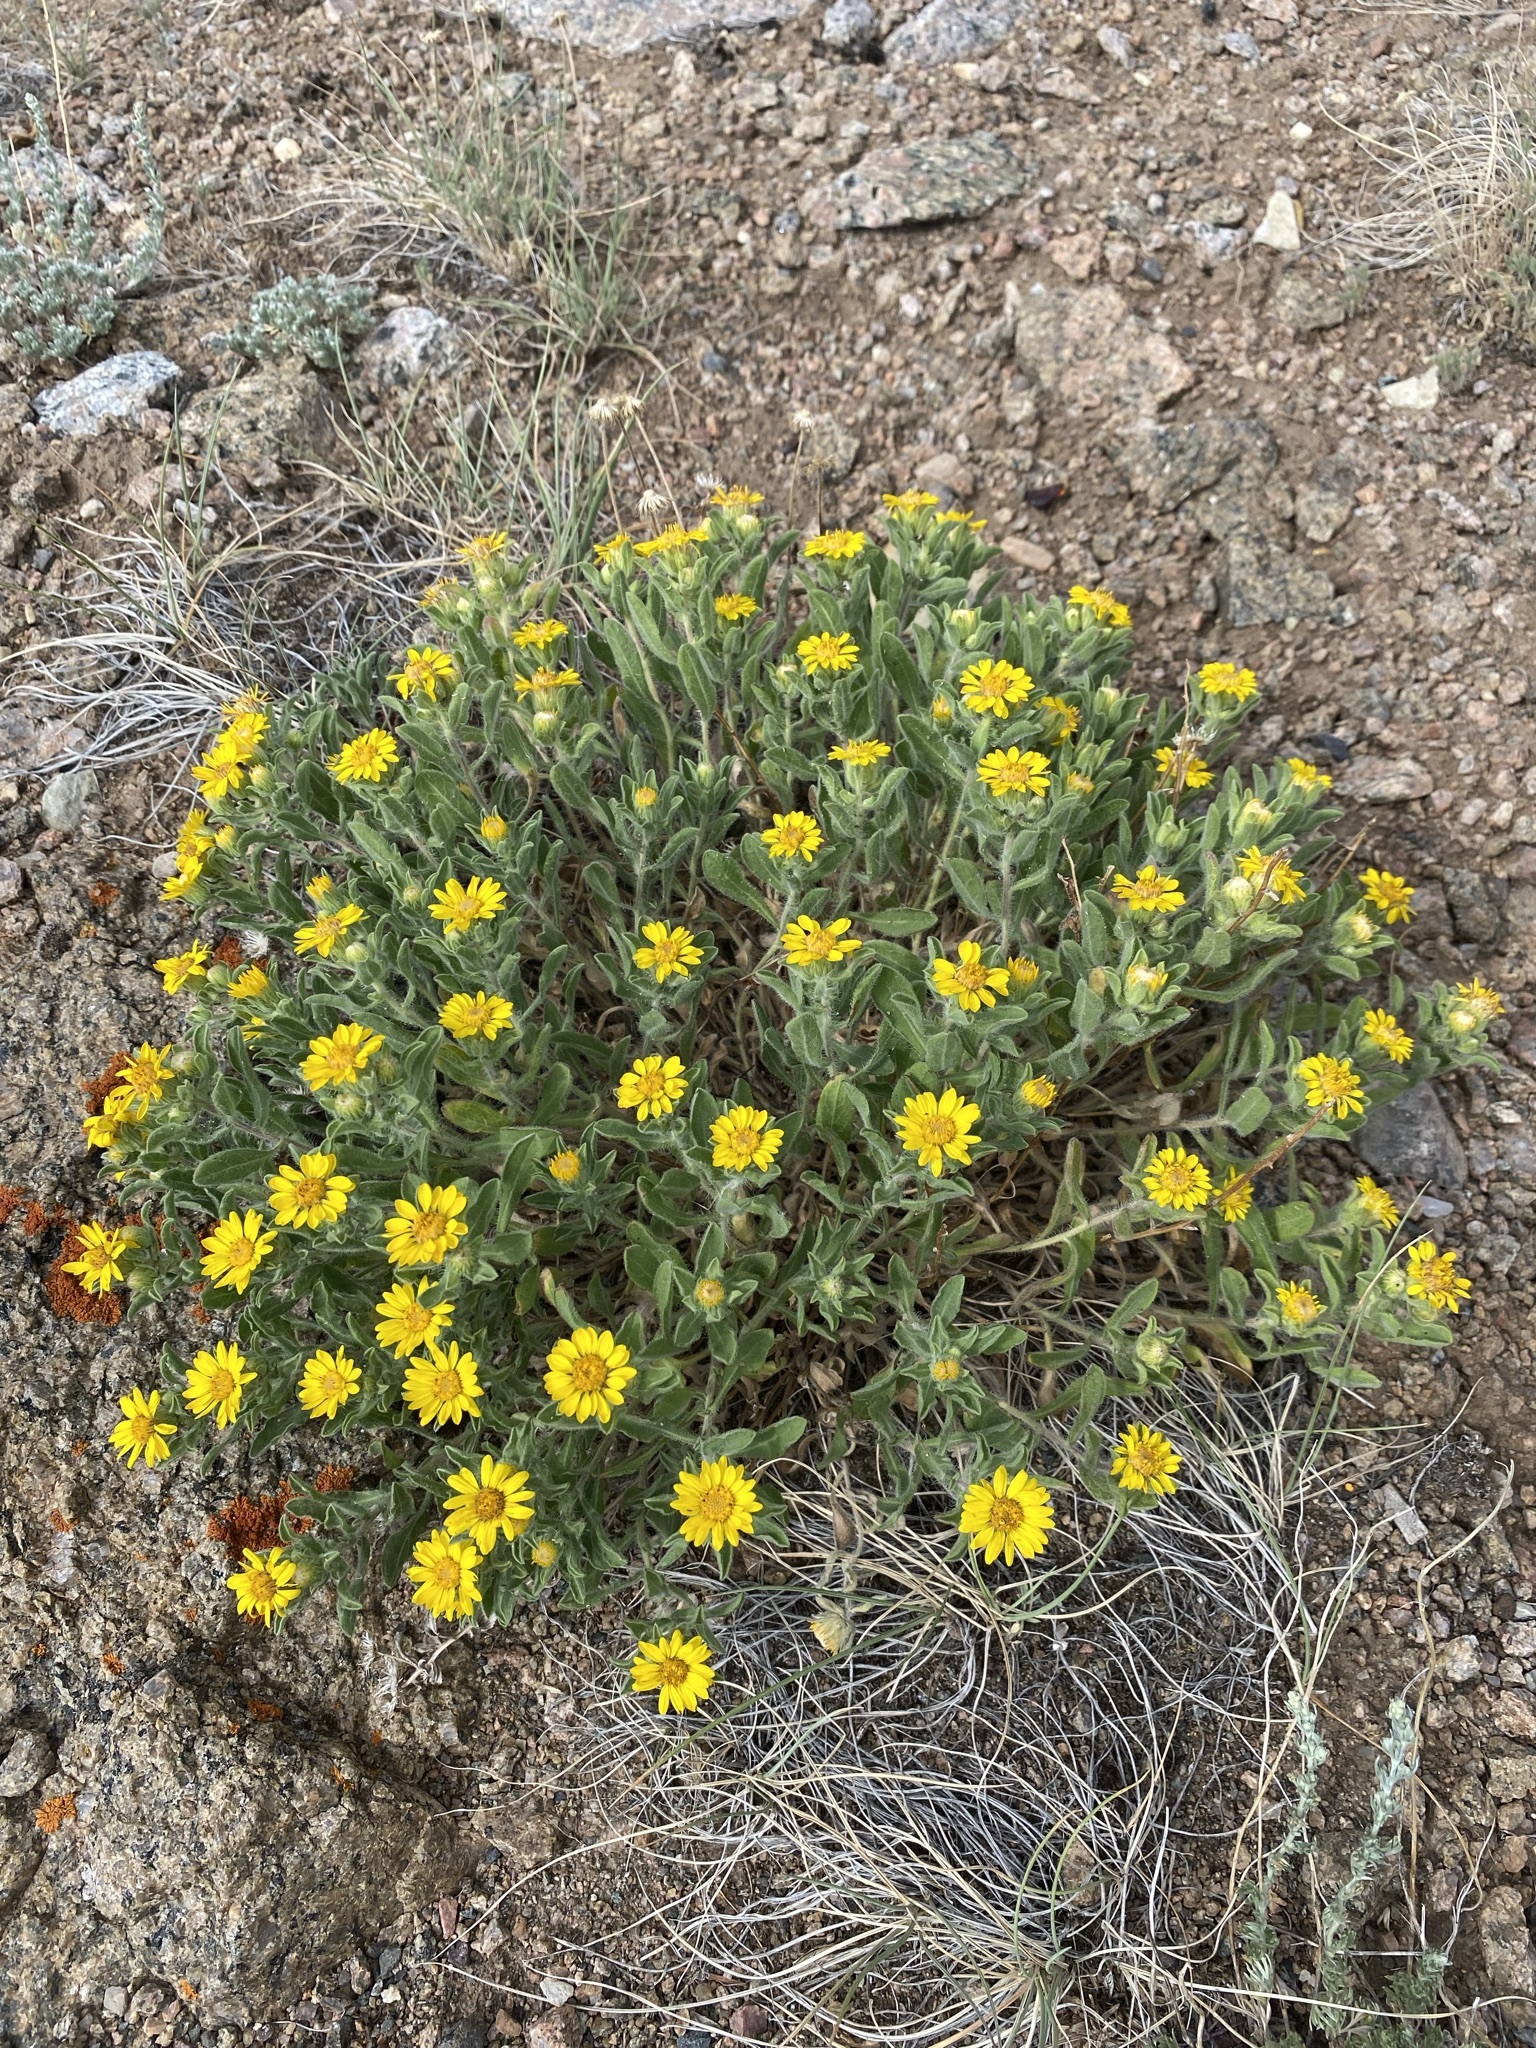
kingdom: Plantae
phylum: Tracheophyta
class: Magnoliopsida
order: Asterales
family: Asteraceae
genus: Heterotheca
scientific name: Heterotheca hispida
